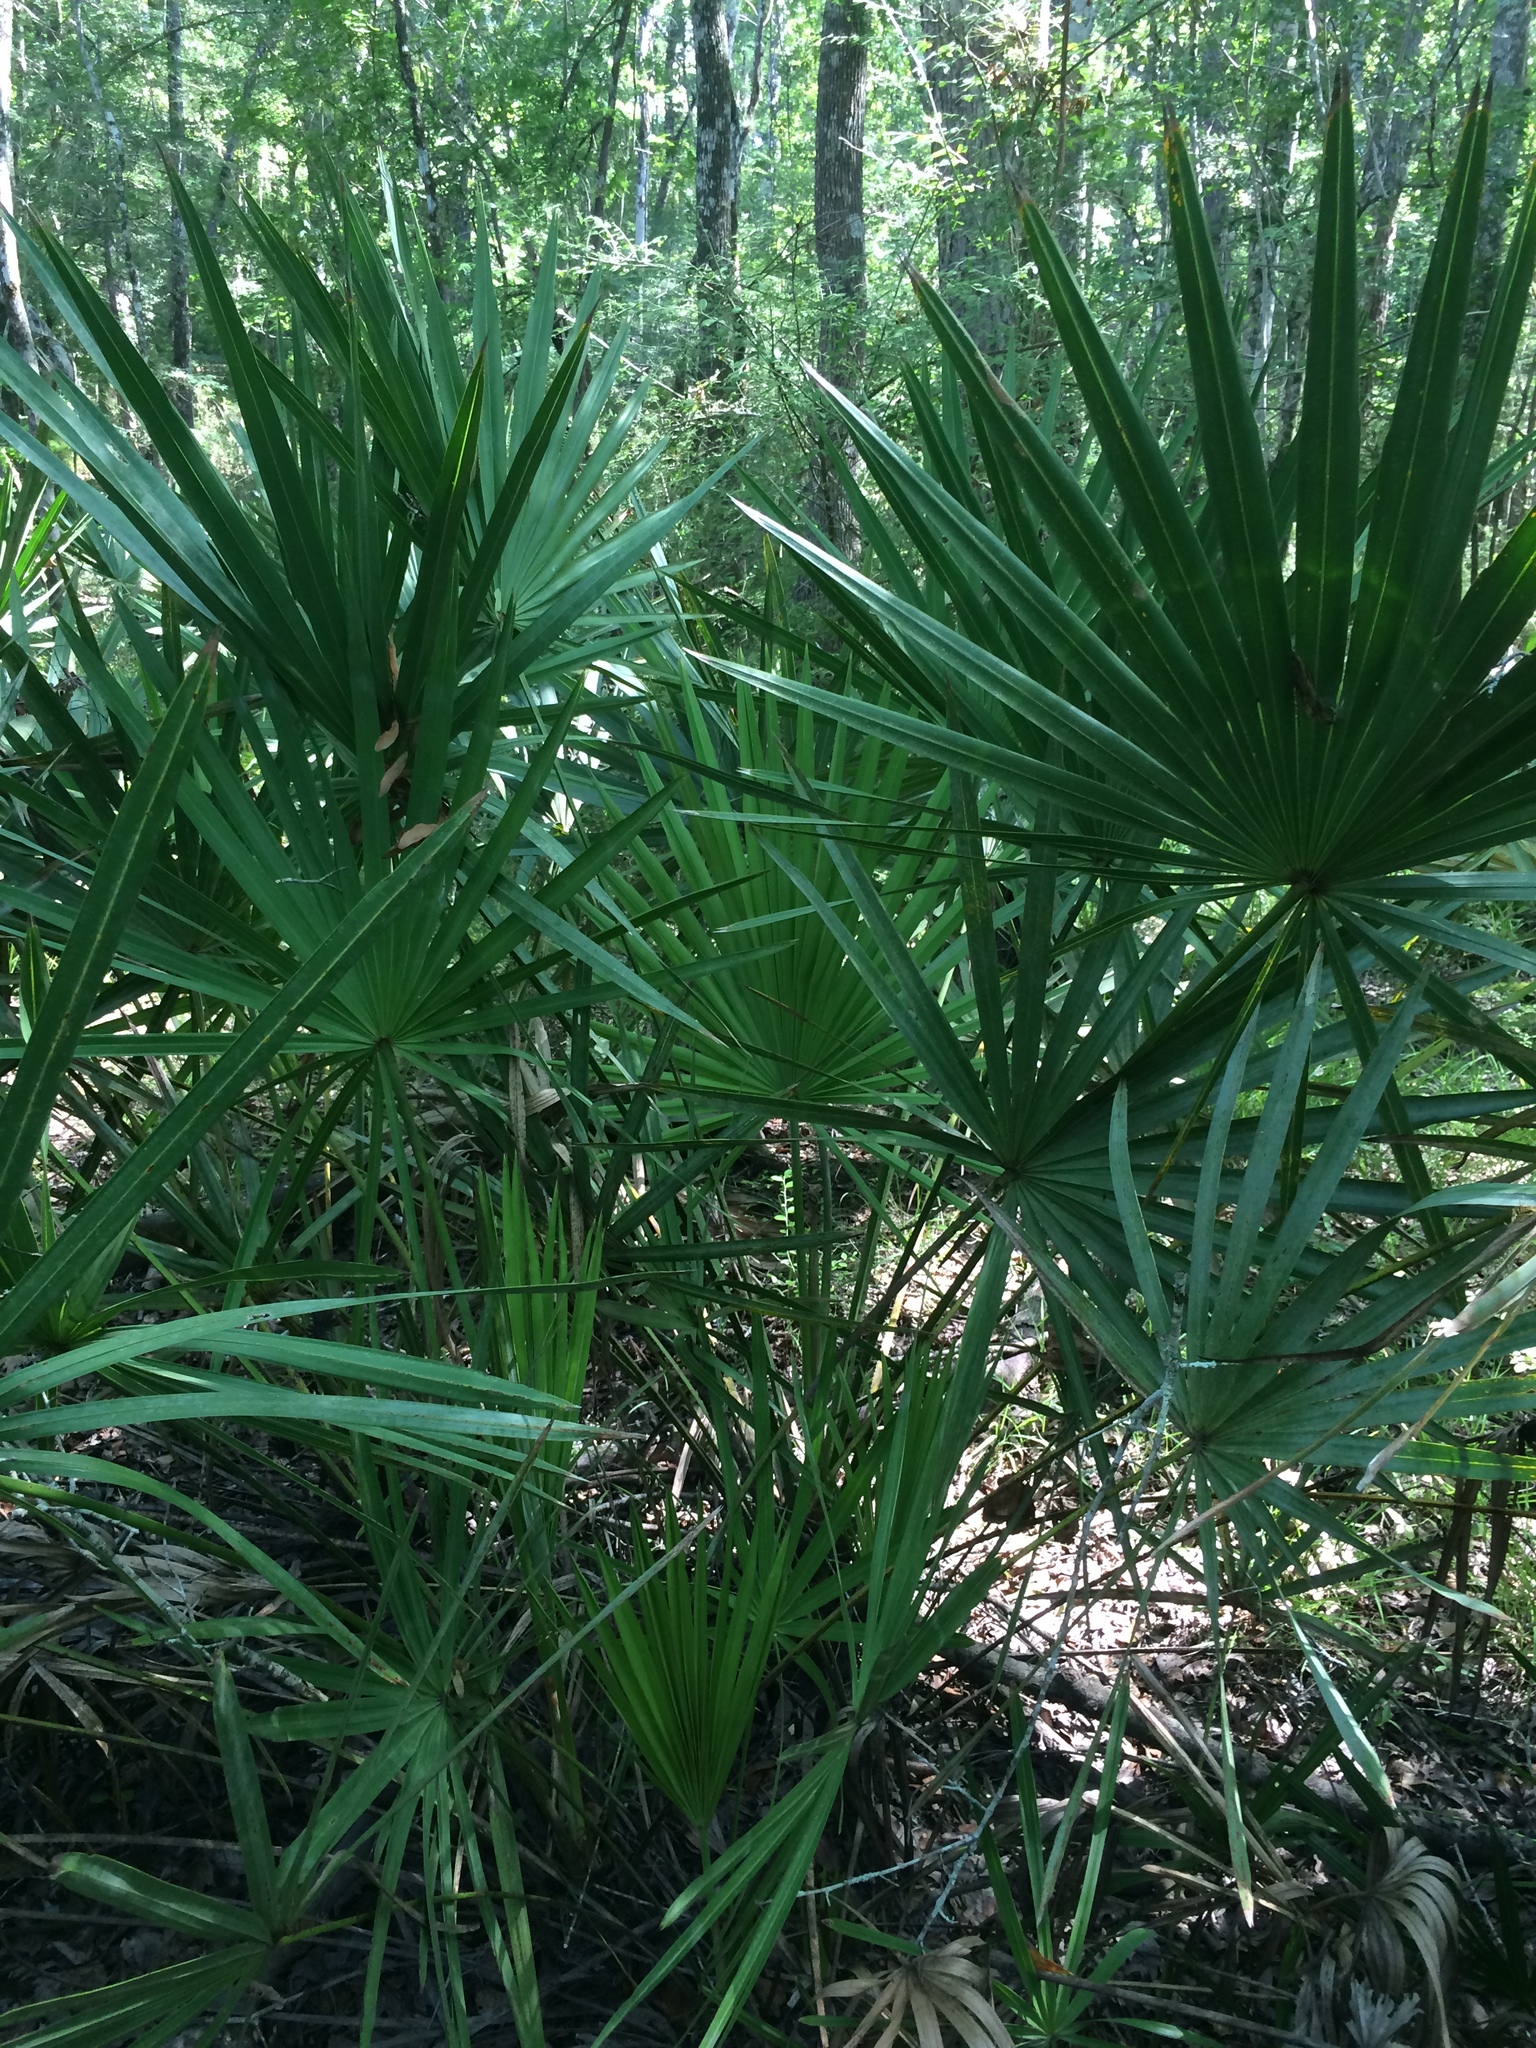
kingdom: Plantae
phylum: Tracheophyta
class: Liliopsida
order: Arecales
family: Arecaceae
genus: Serenoa
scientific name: Serenoa repens
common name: Saw-palmetto
